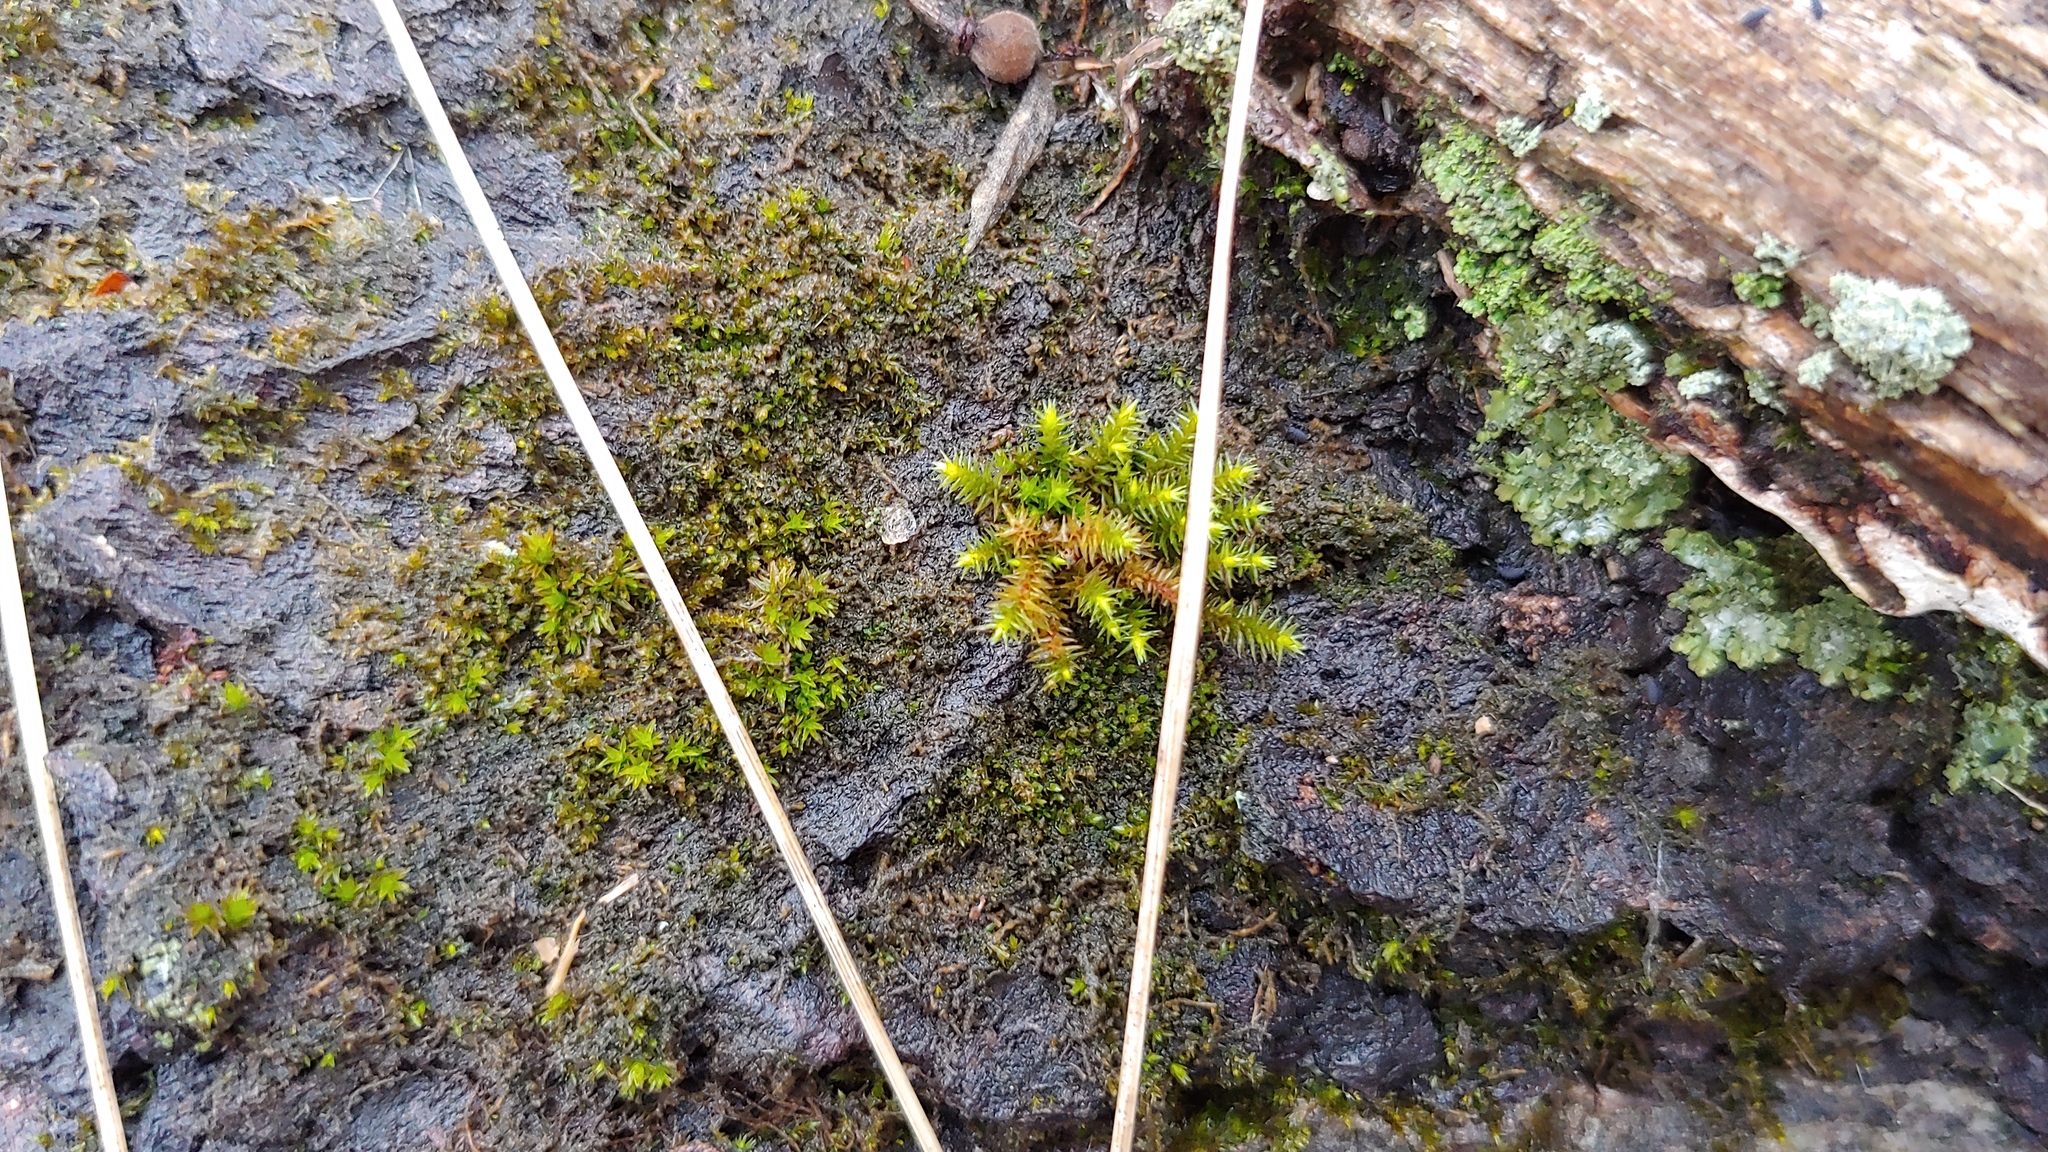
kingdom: Plantae
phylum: Bryophyta
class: Bryopsida
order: Hedwigiales
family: Hedwigiaceae
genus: Hedwigia
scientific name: Hedwigia ciliata
